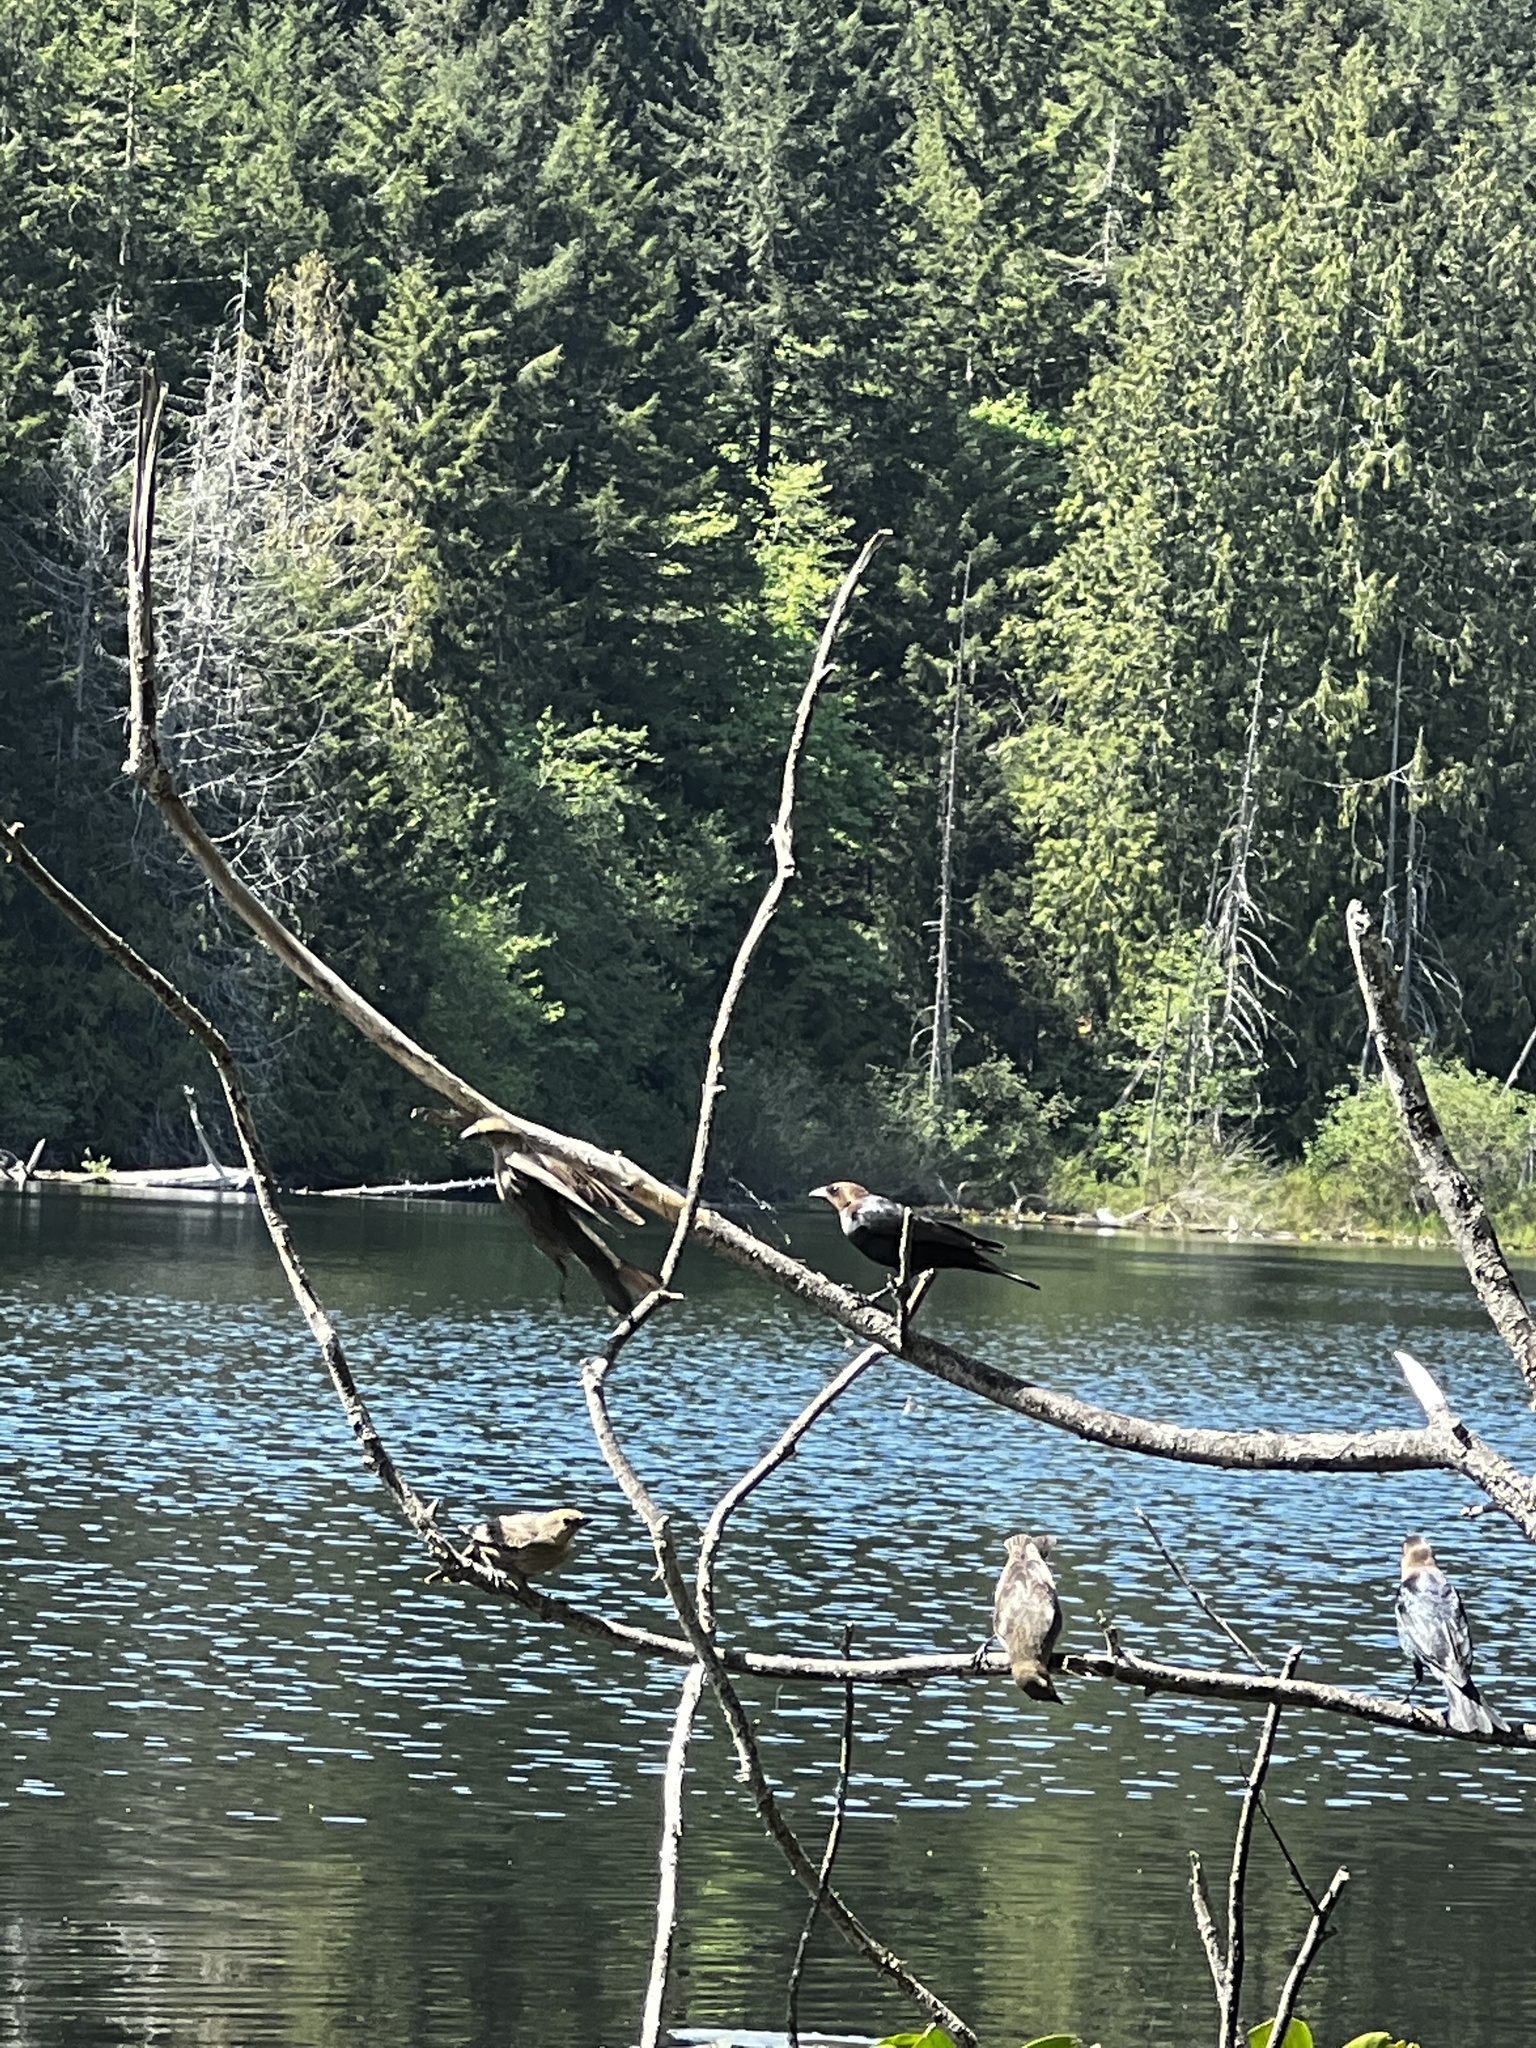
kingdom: Animalia
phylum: Chordata
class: Aves
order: Passeriformes
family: Icteridae
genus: Molothrus
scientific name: Molothrus ater
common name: Brown-headed cowbird
